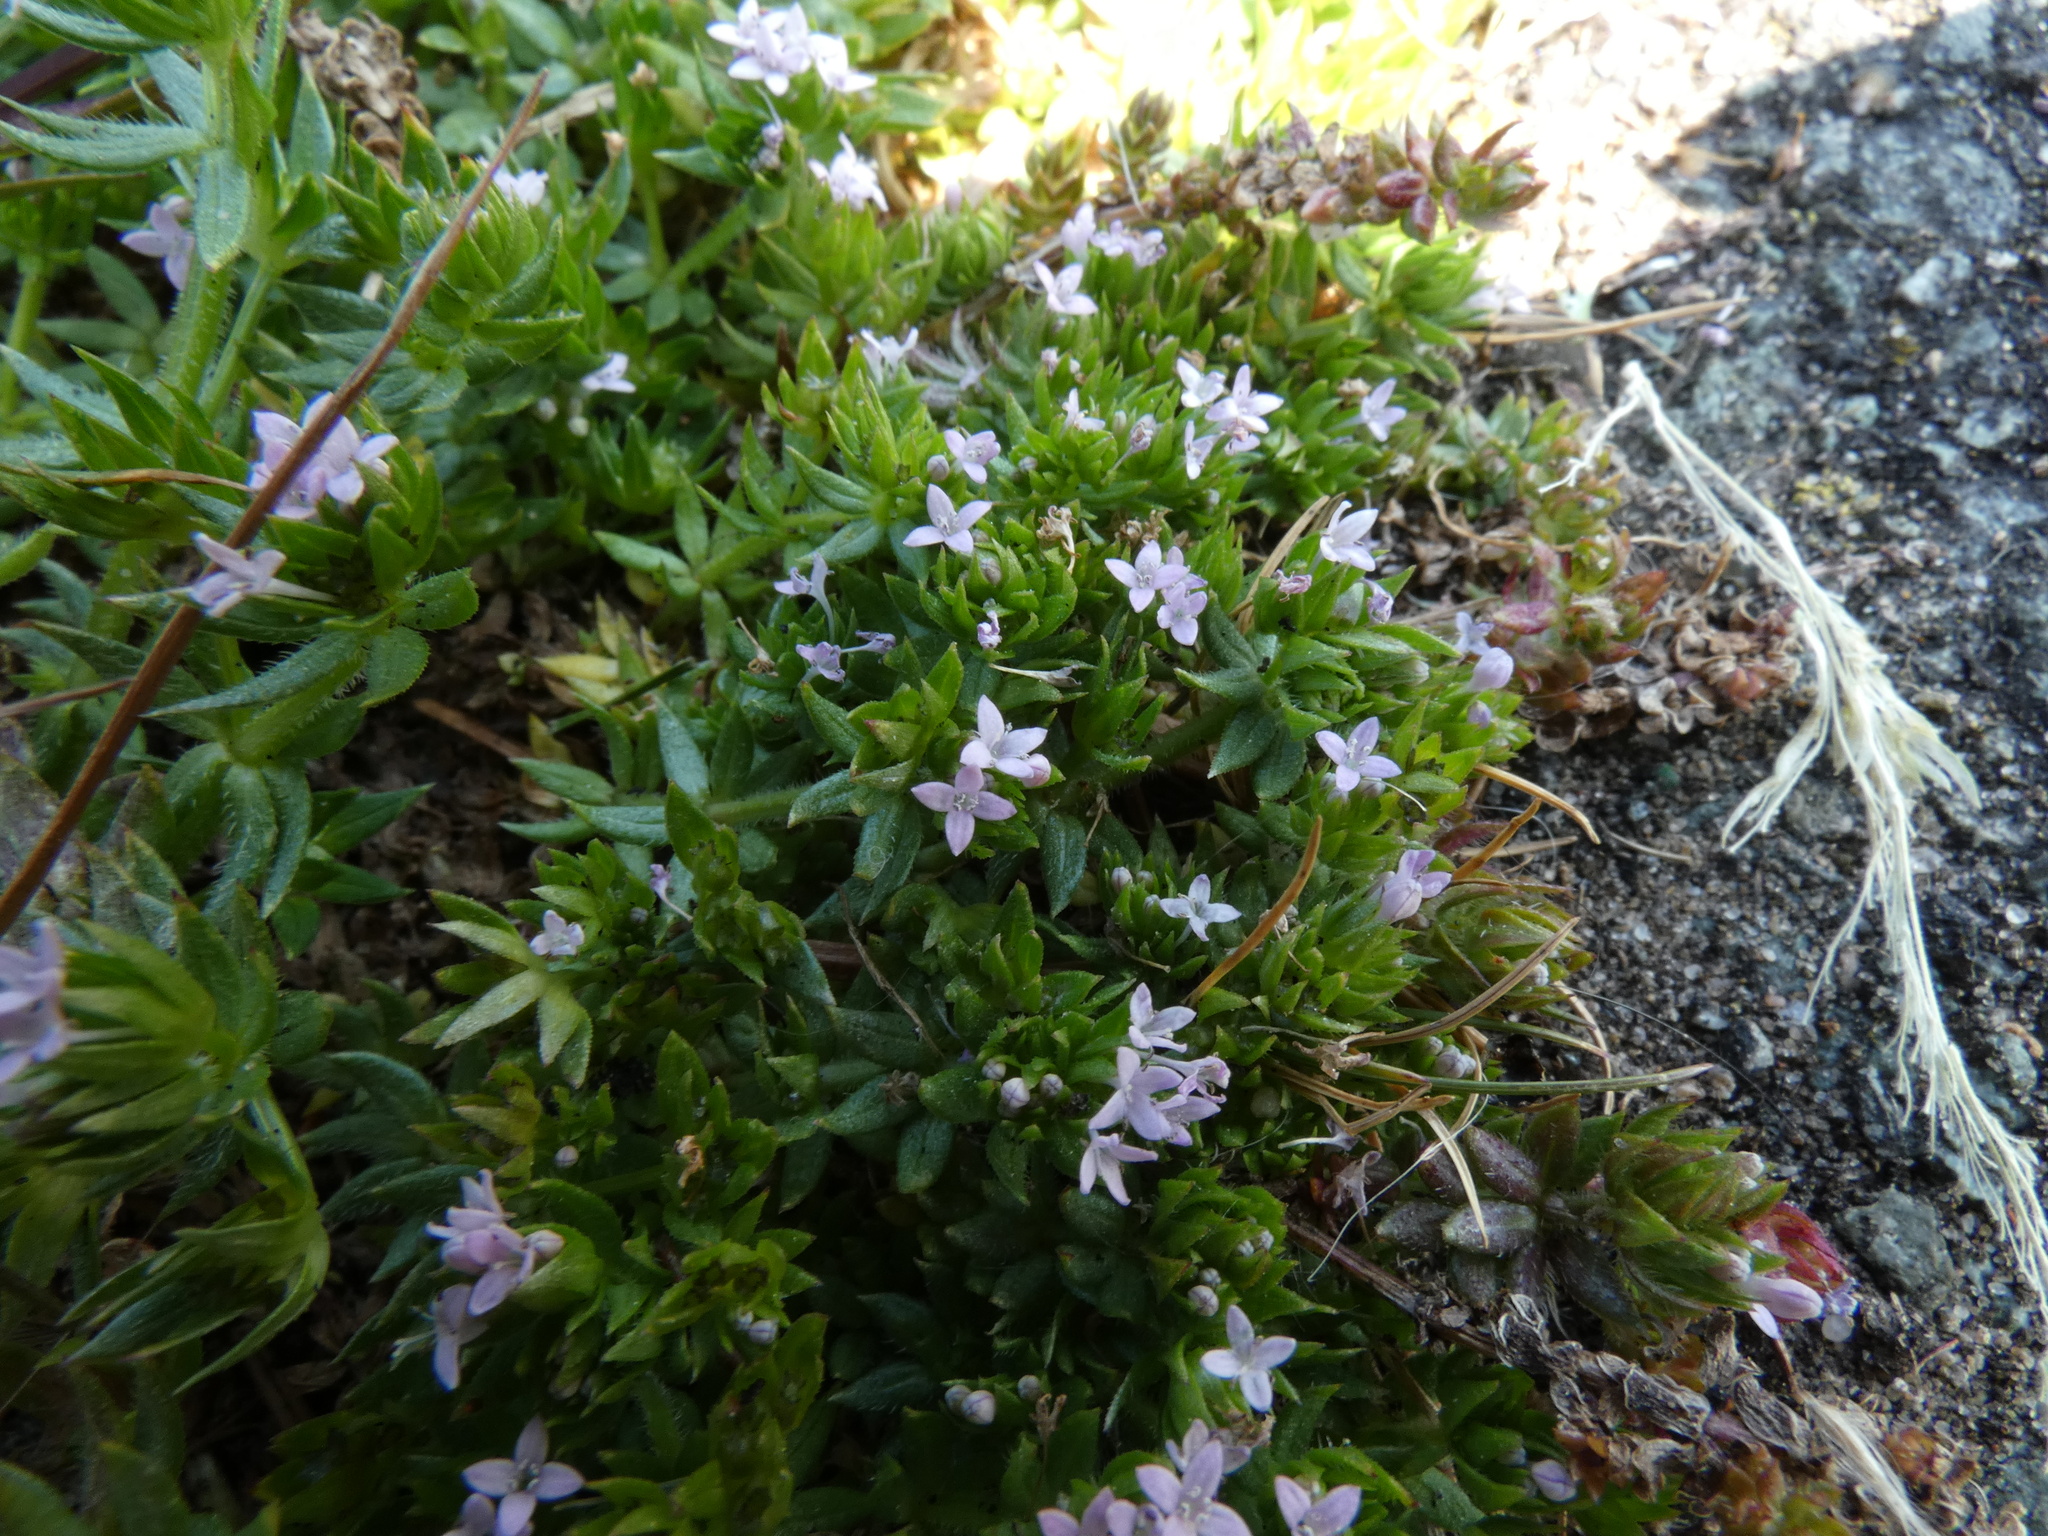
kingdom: Plantae
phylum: Tracheophyta
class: Magnoliopsida
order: Gentianales
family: Rubiaceae
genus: Sherardia
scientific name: Sherardia arvensis
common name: Field madder
